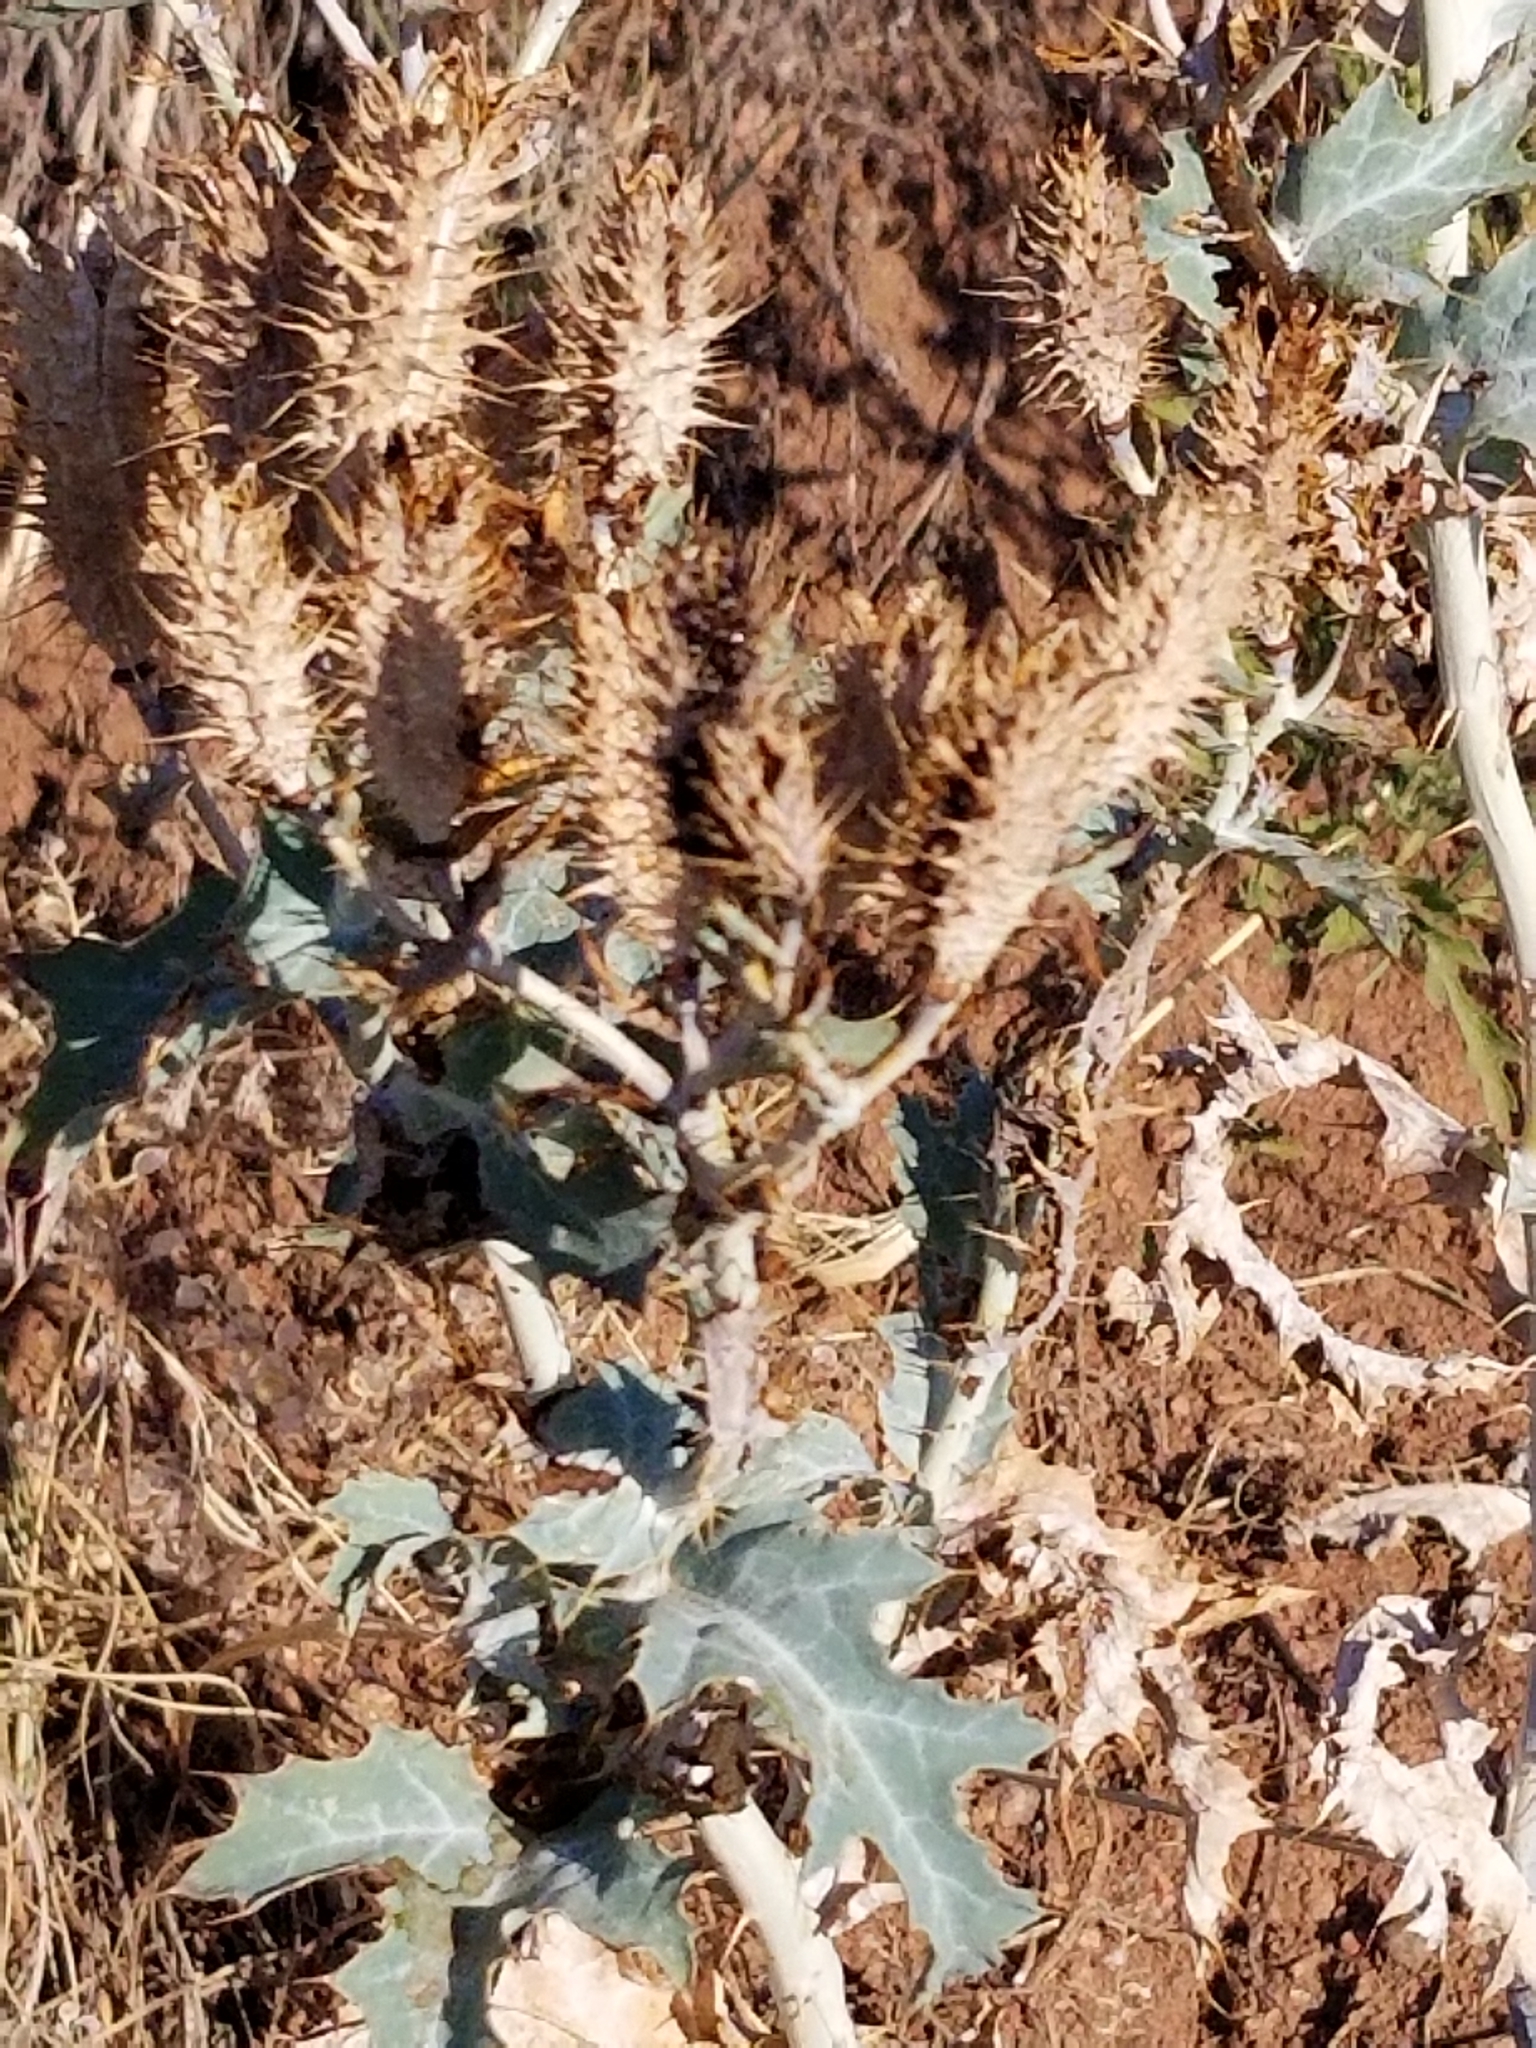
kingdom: Plantae
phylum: Tracheophyta
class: Magnoliopsida
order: Ranunculales
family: Papaveraceae
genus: Argemone
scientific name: Argemone polyanthemos
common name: Plains prickly-poppy
